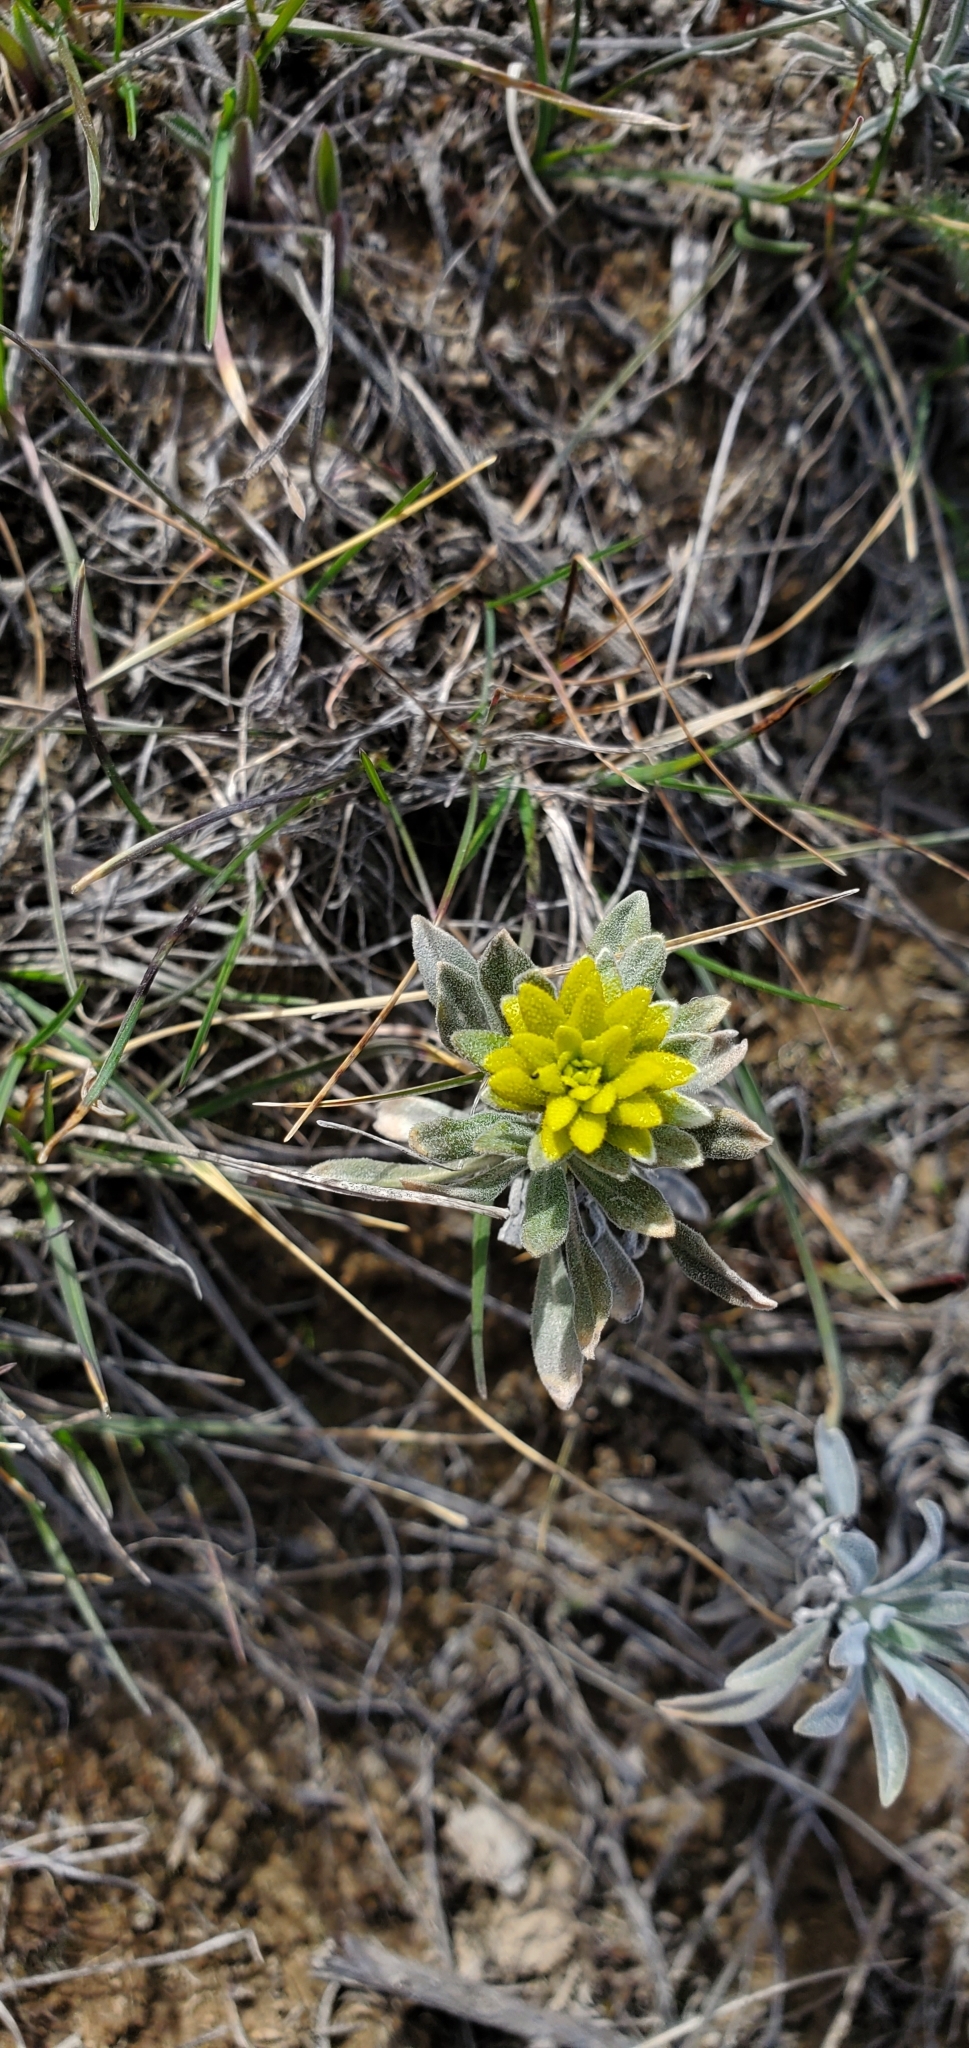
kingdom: Fungi
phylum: Basidiomycota
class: Pucciniomycetes
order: Pucciniales
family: Pucciniaceae
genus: Puccinia
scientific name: Puccinia monoica
